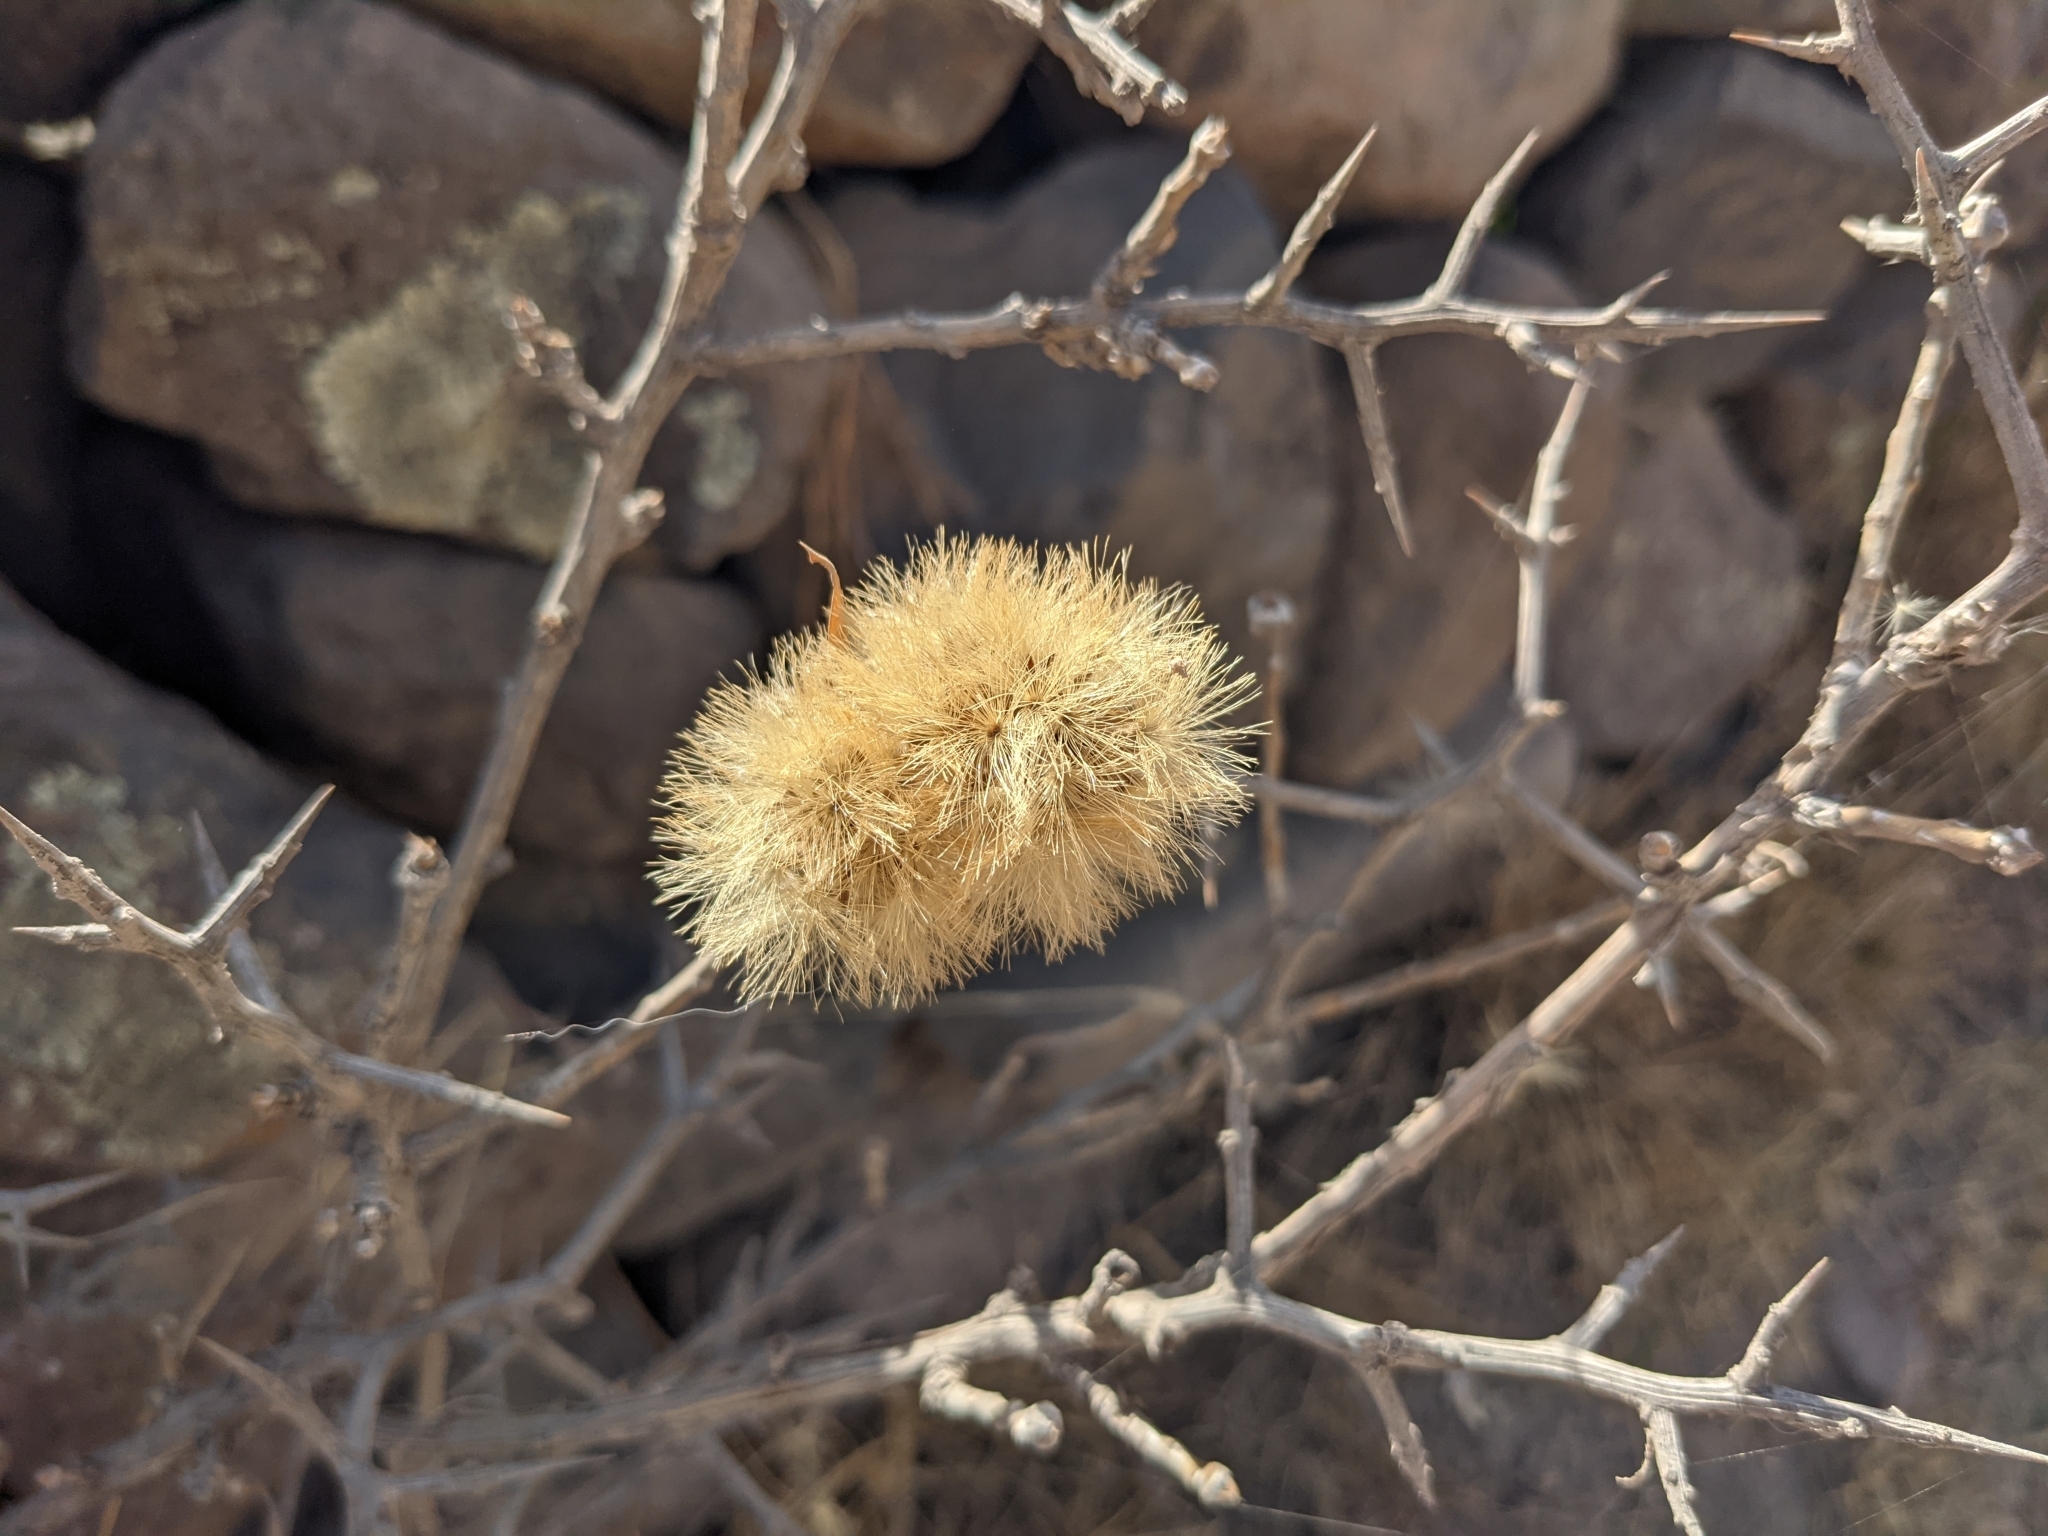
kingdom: Plantae
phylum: Tracheophyta
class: Magnoliopsida
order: Asterales
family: Asteraceae
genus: Proustia
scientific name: Proustia cuneifolia
